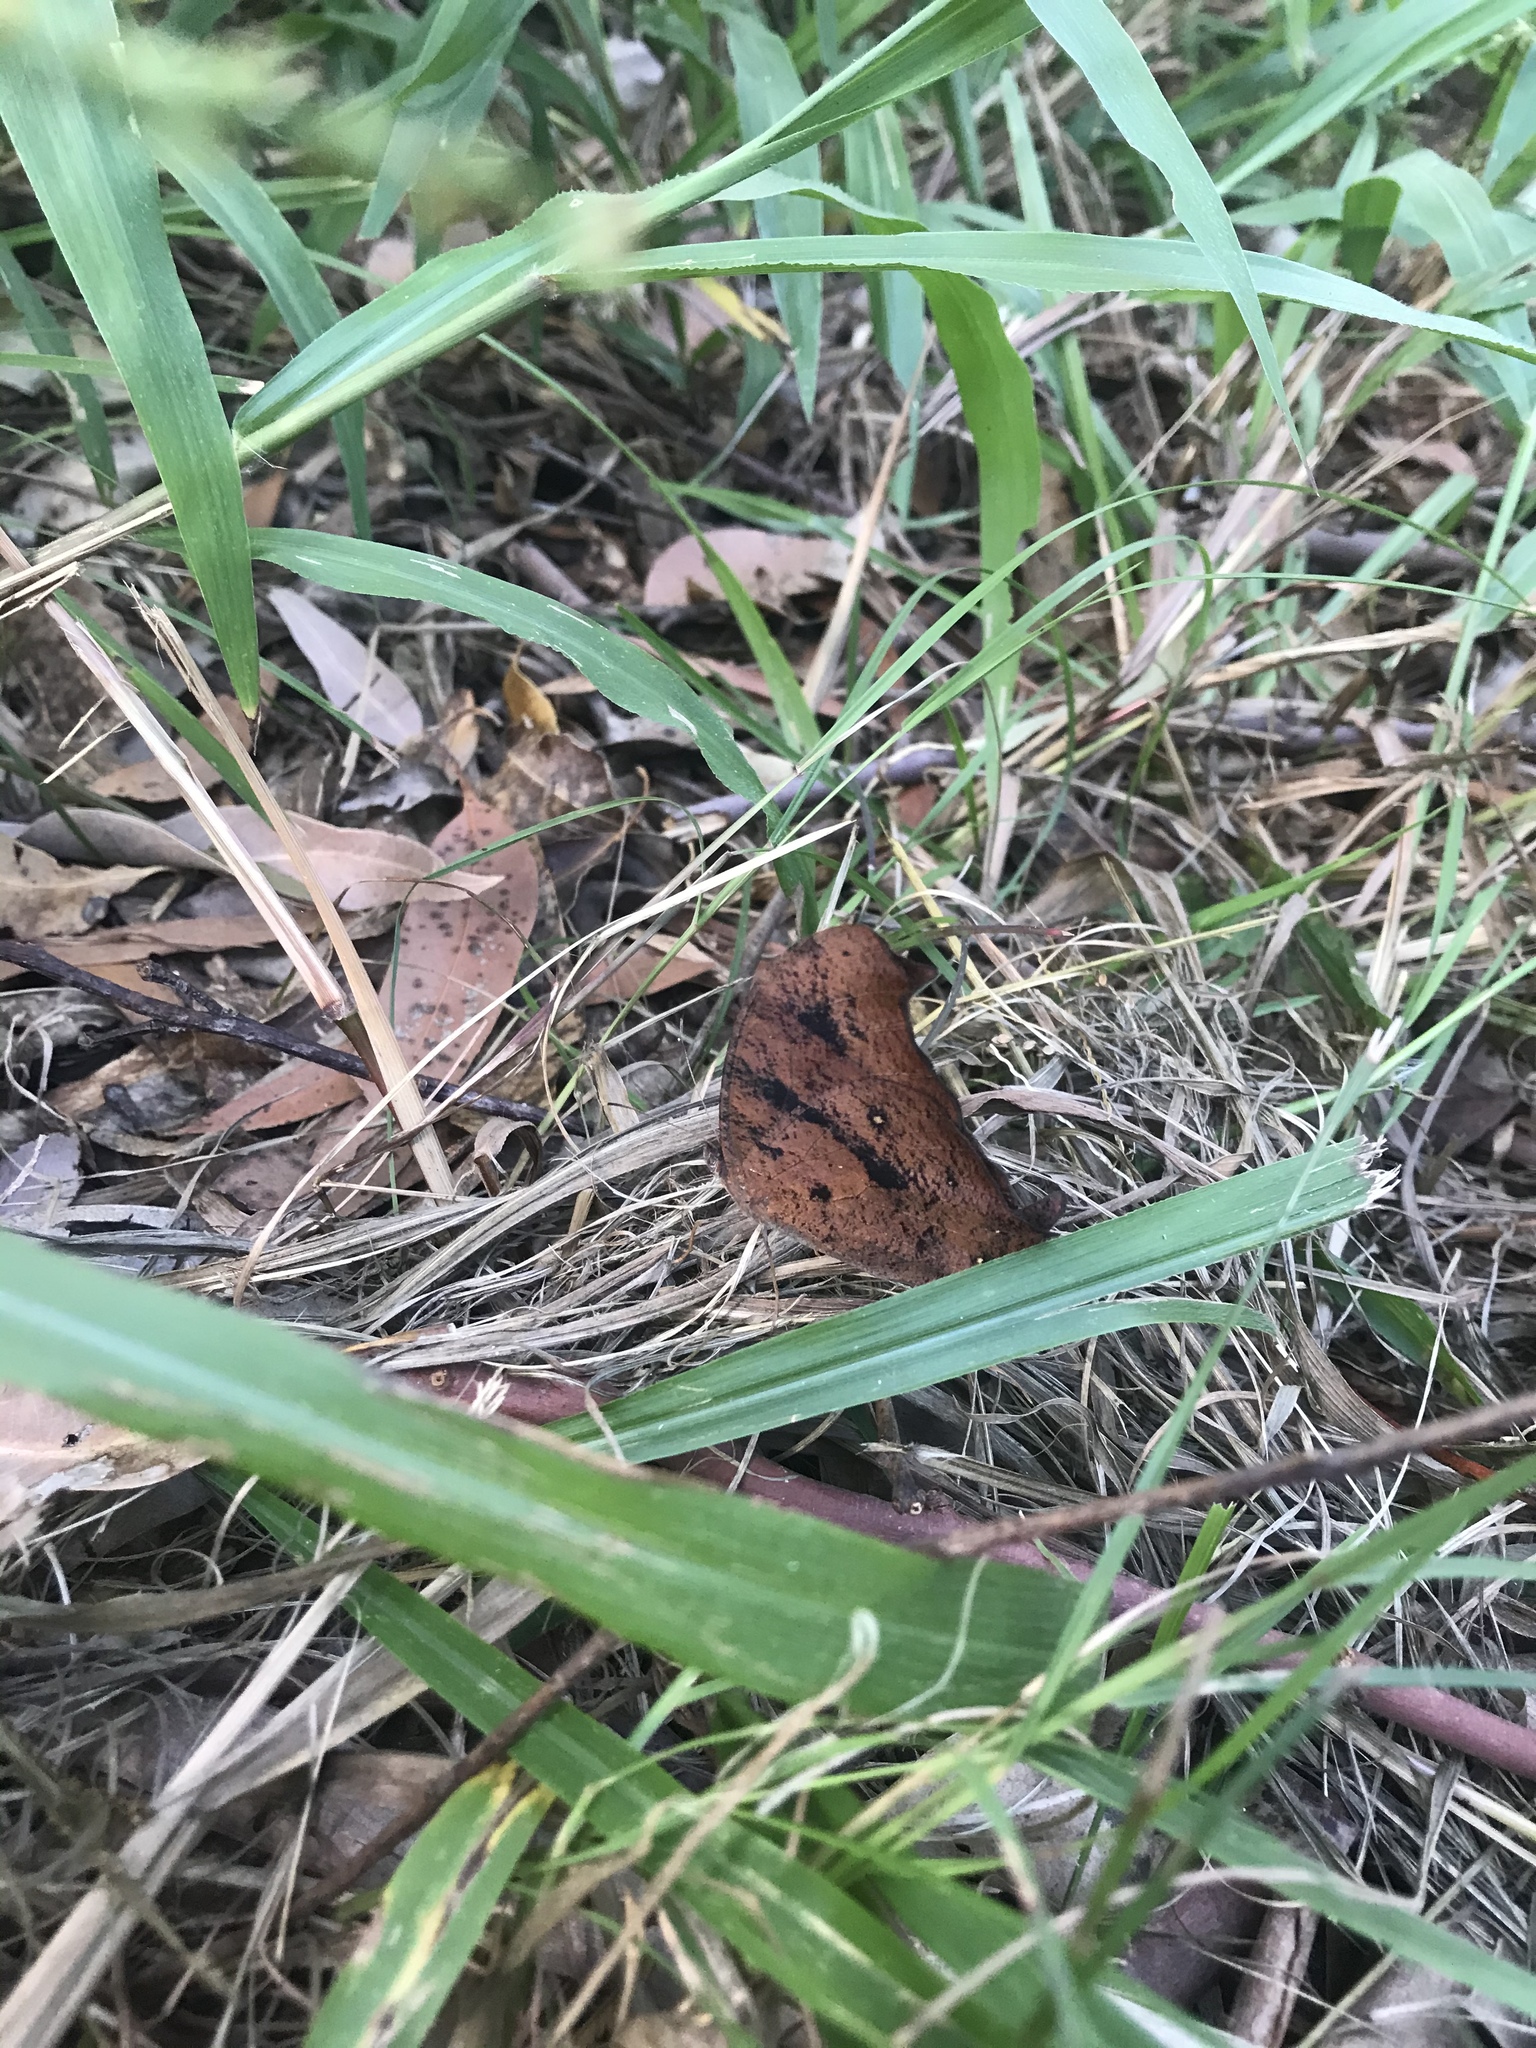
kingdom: Animalia
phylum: Arthropoda
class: Insecta
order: Lepidoptera
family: Nymphalidae
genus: Melanitis
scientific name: Melanitis leda
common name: Twilight brown
